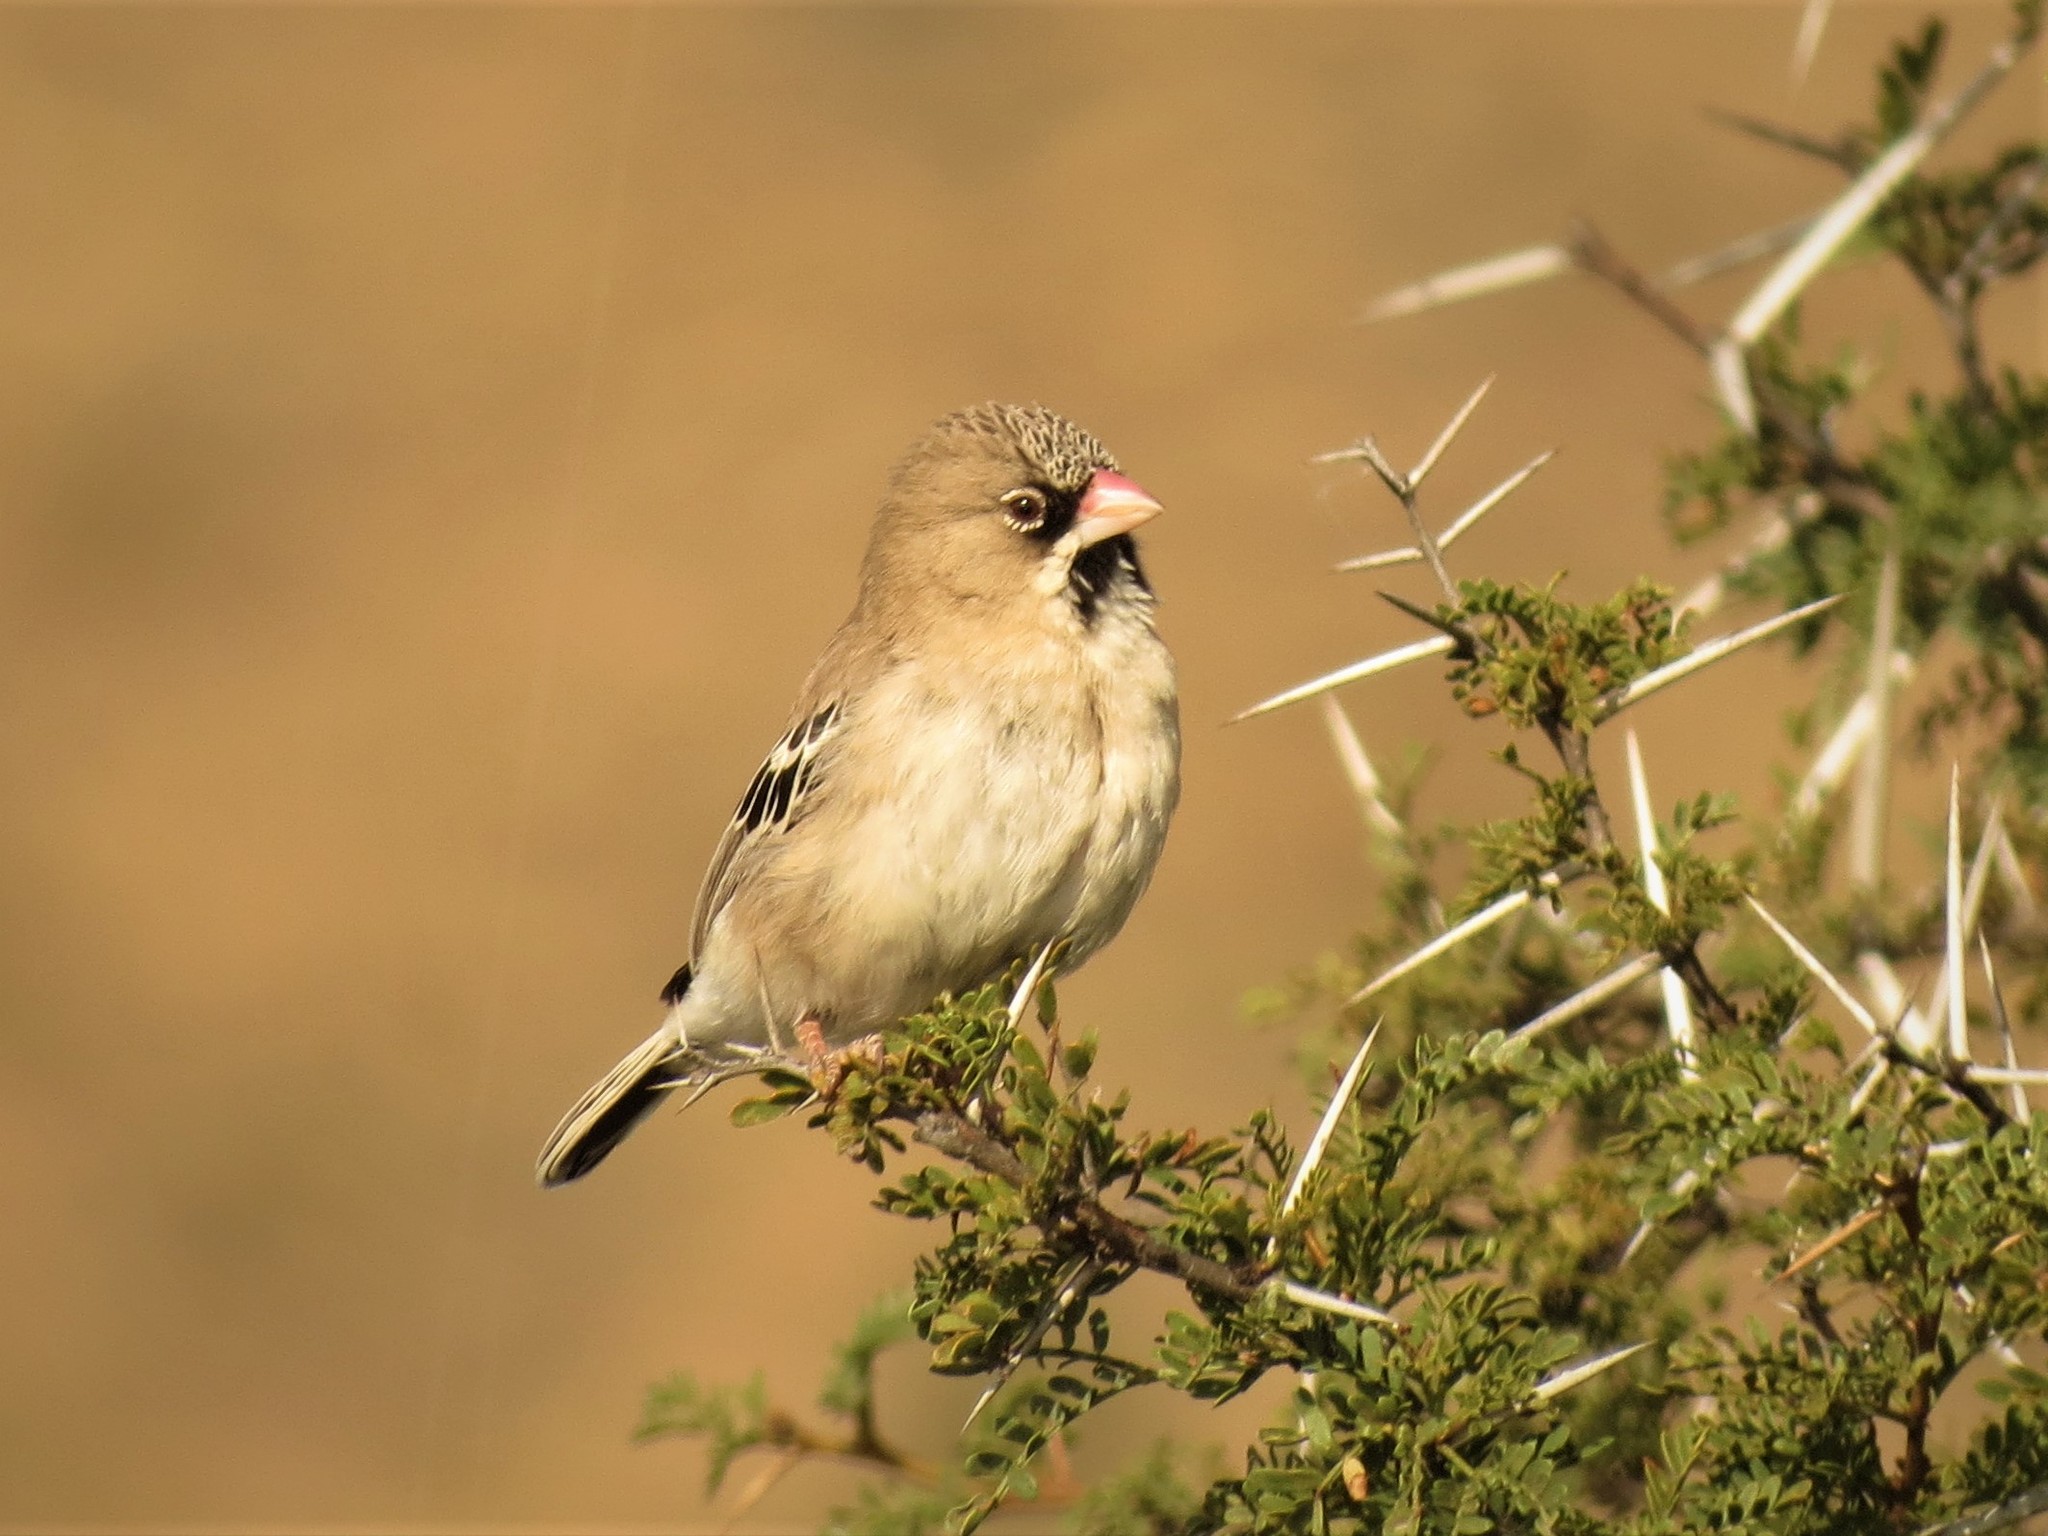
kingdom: Animalia
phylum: Chordata
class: Aves
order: Passeriformes
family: Ploceidae
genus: Sporopipes
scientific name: Sporopipes squamifrons
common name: Scaly-feathered weaver
